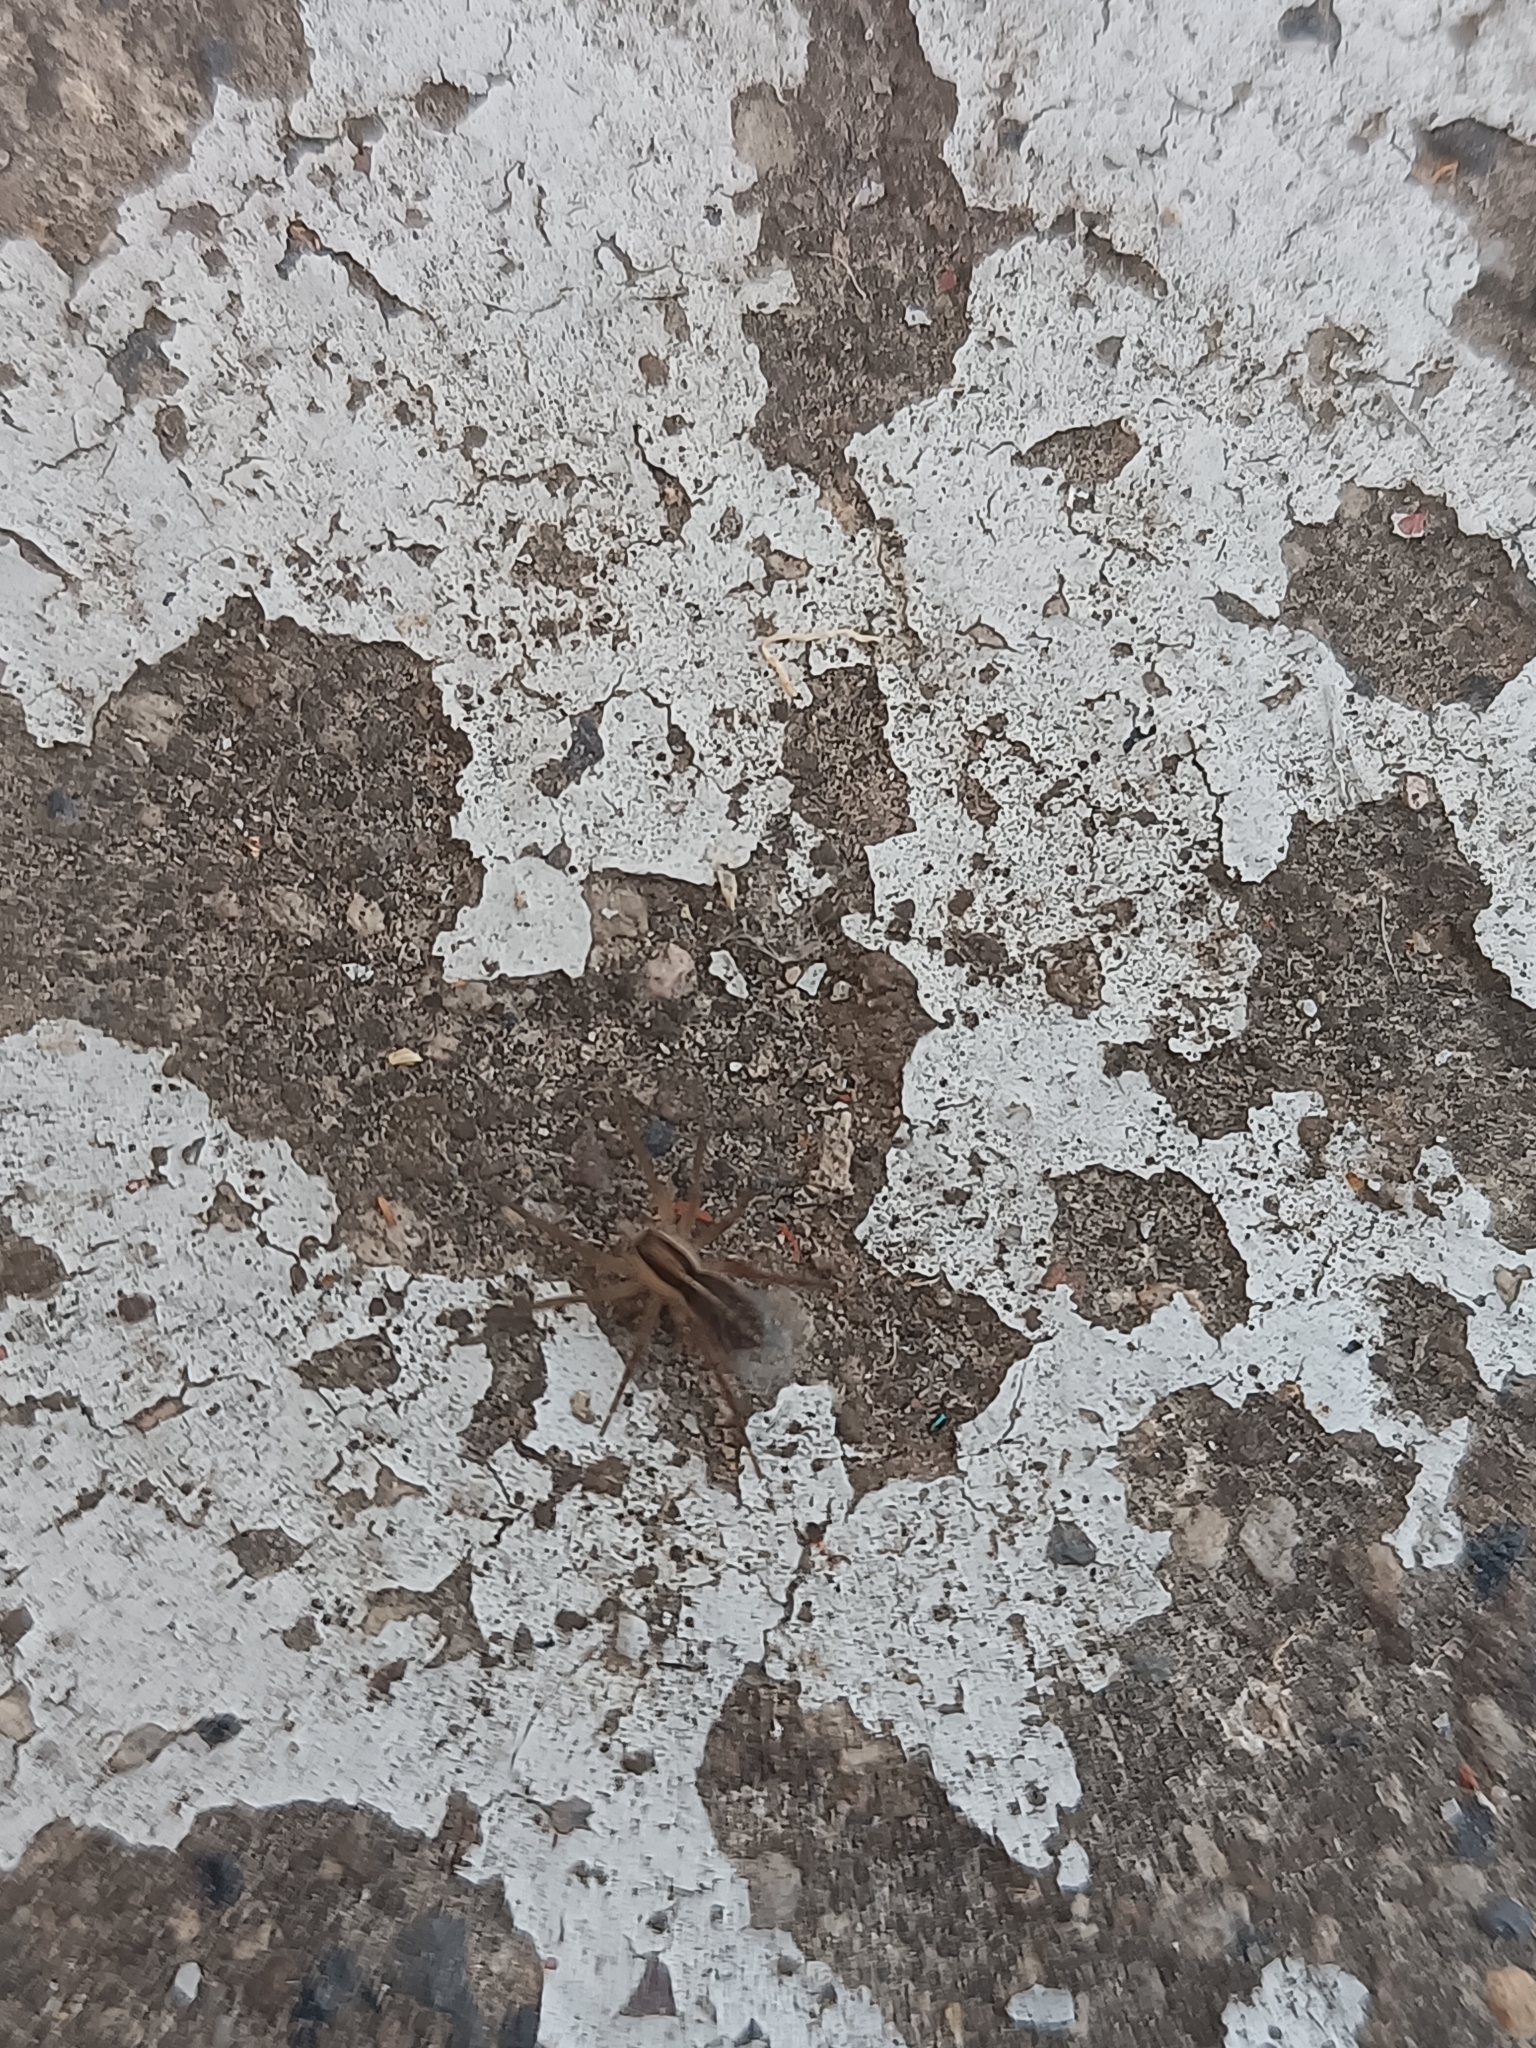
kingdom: Animalia
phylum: Arthropoda
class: Arachnida
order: Araneae
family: Lycosidae
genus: Rabidosa
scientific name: Rabidosa rabida
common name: Rabid wolf spider
